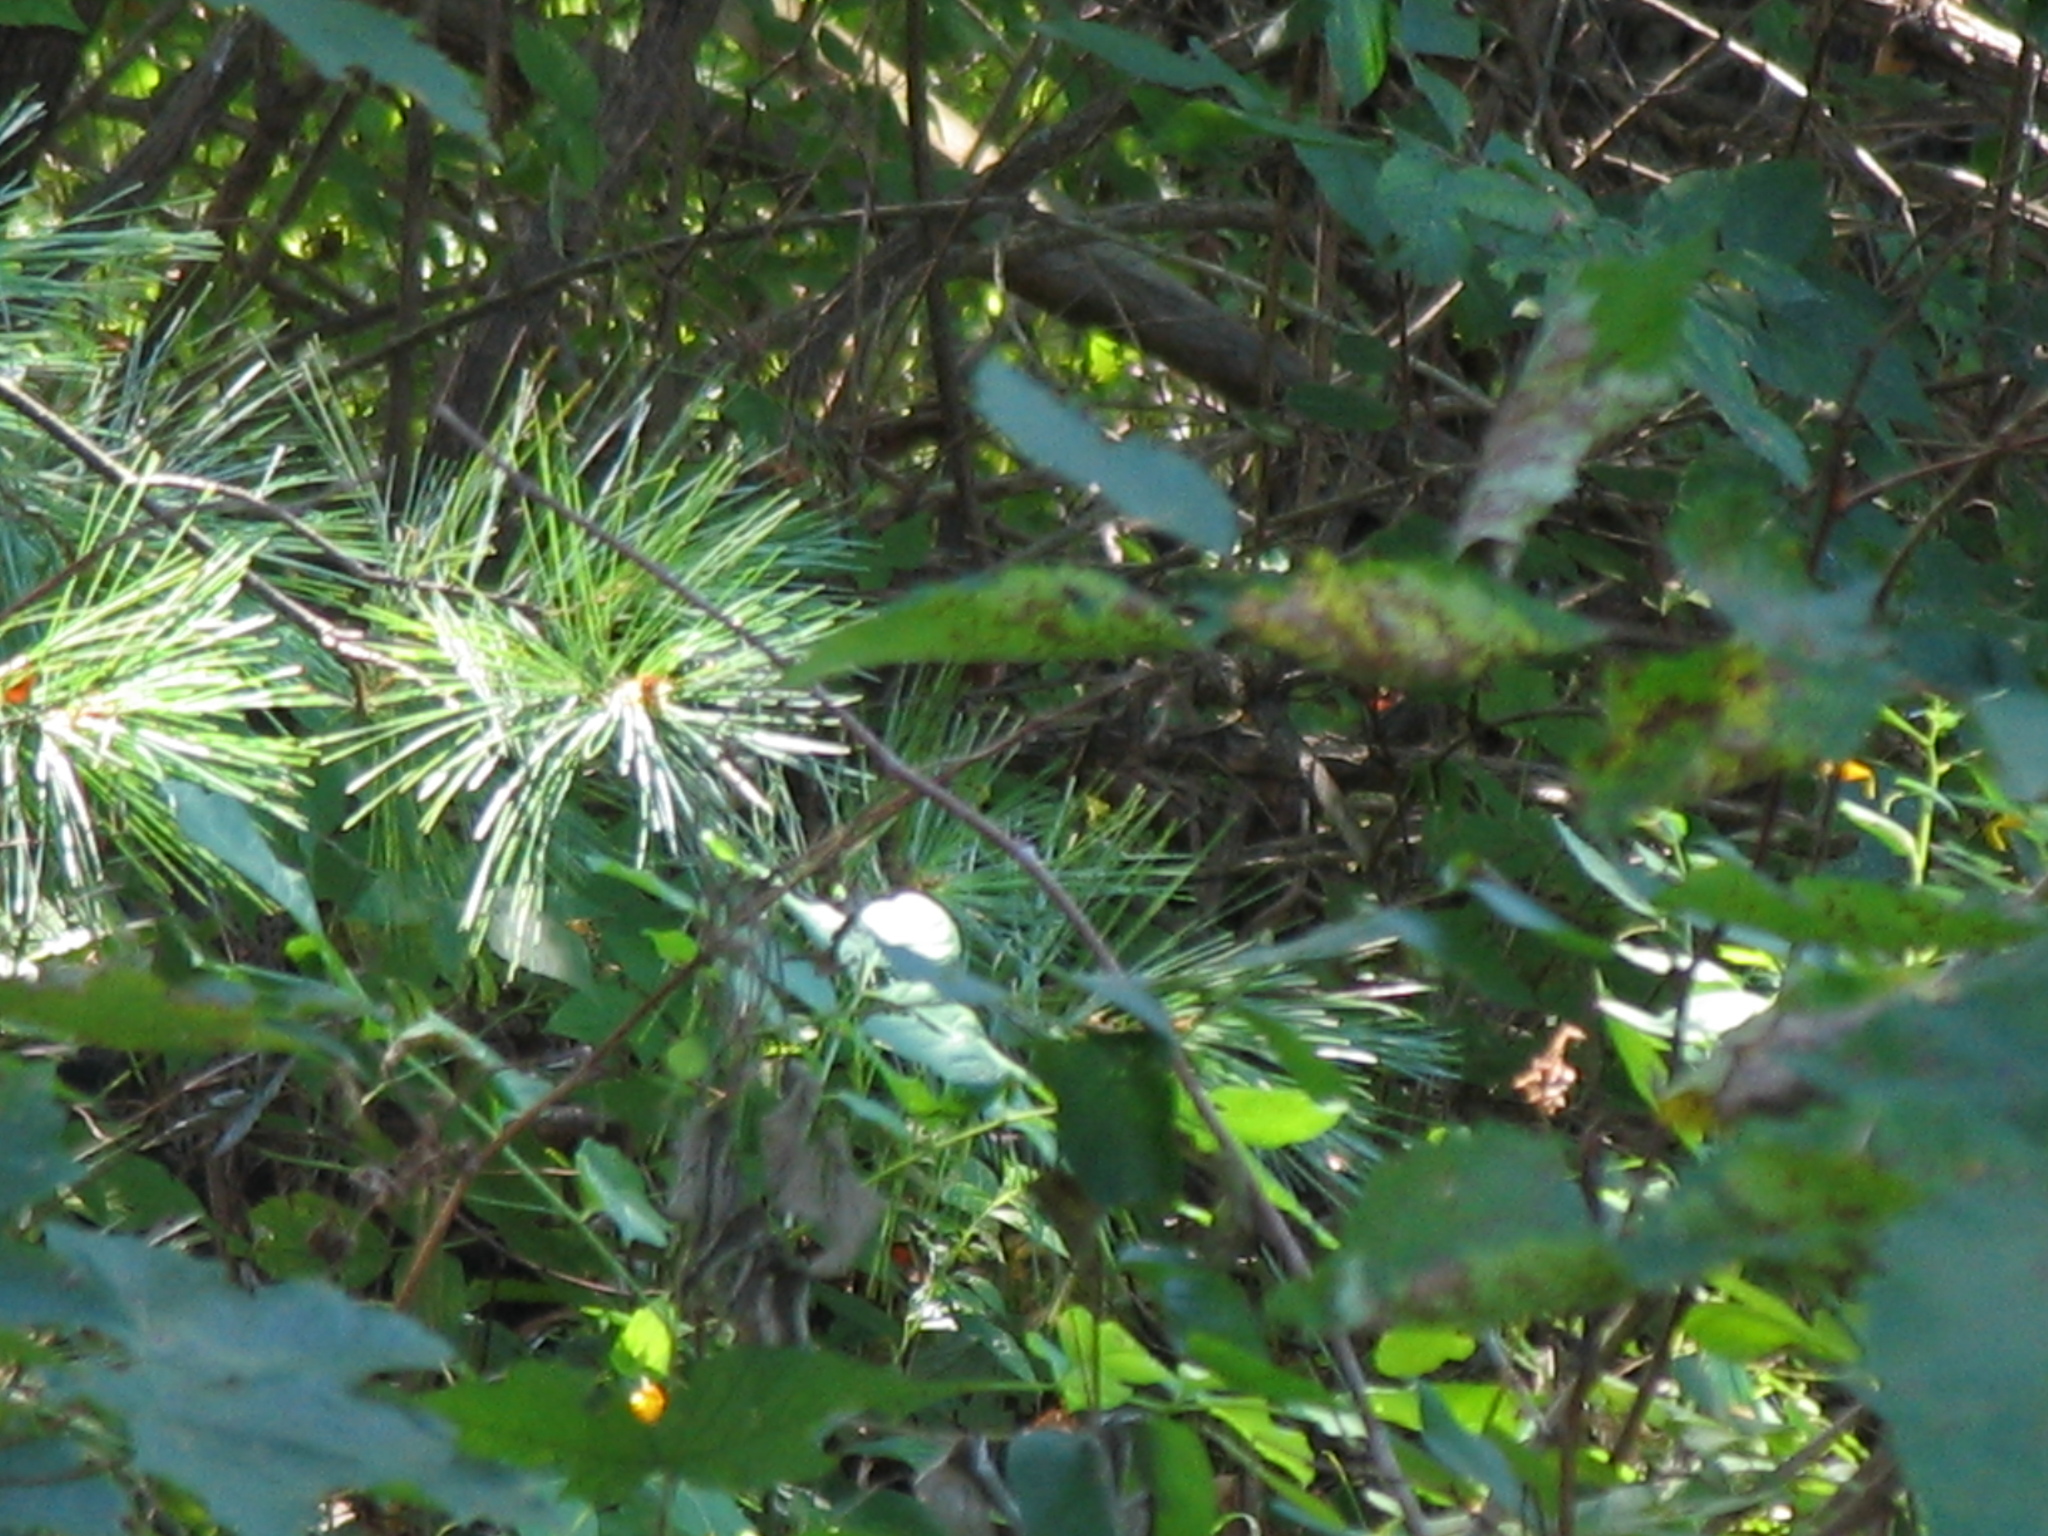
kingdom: Plantae
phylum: Tracheophyta
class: Pinopsida
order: Pinales
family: Pinaceae
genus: Pinus
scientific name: Pinus strobus
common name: Weymouth pine
